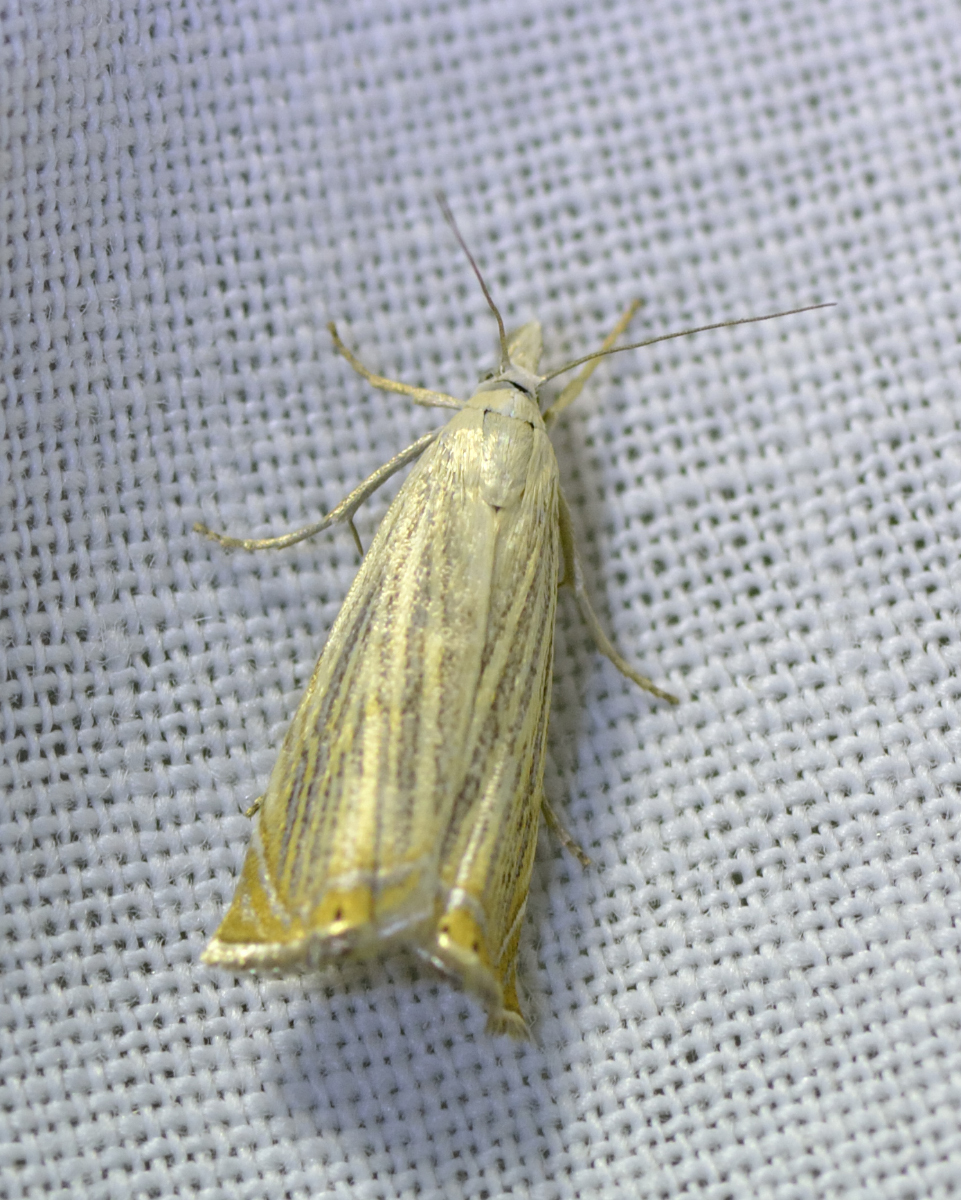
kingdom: Animalia
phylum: Arthropoda
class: Insecta
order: Lepidoptera
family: Crambidae
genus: Chrysoteuchia
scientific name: Chrysoteuchia culmella
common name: Garden grass-veneer
